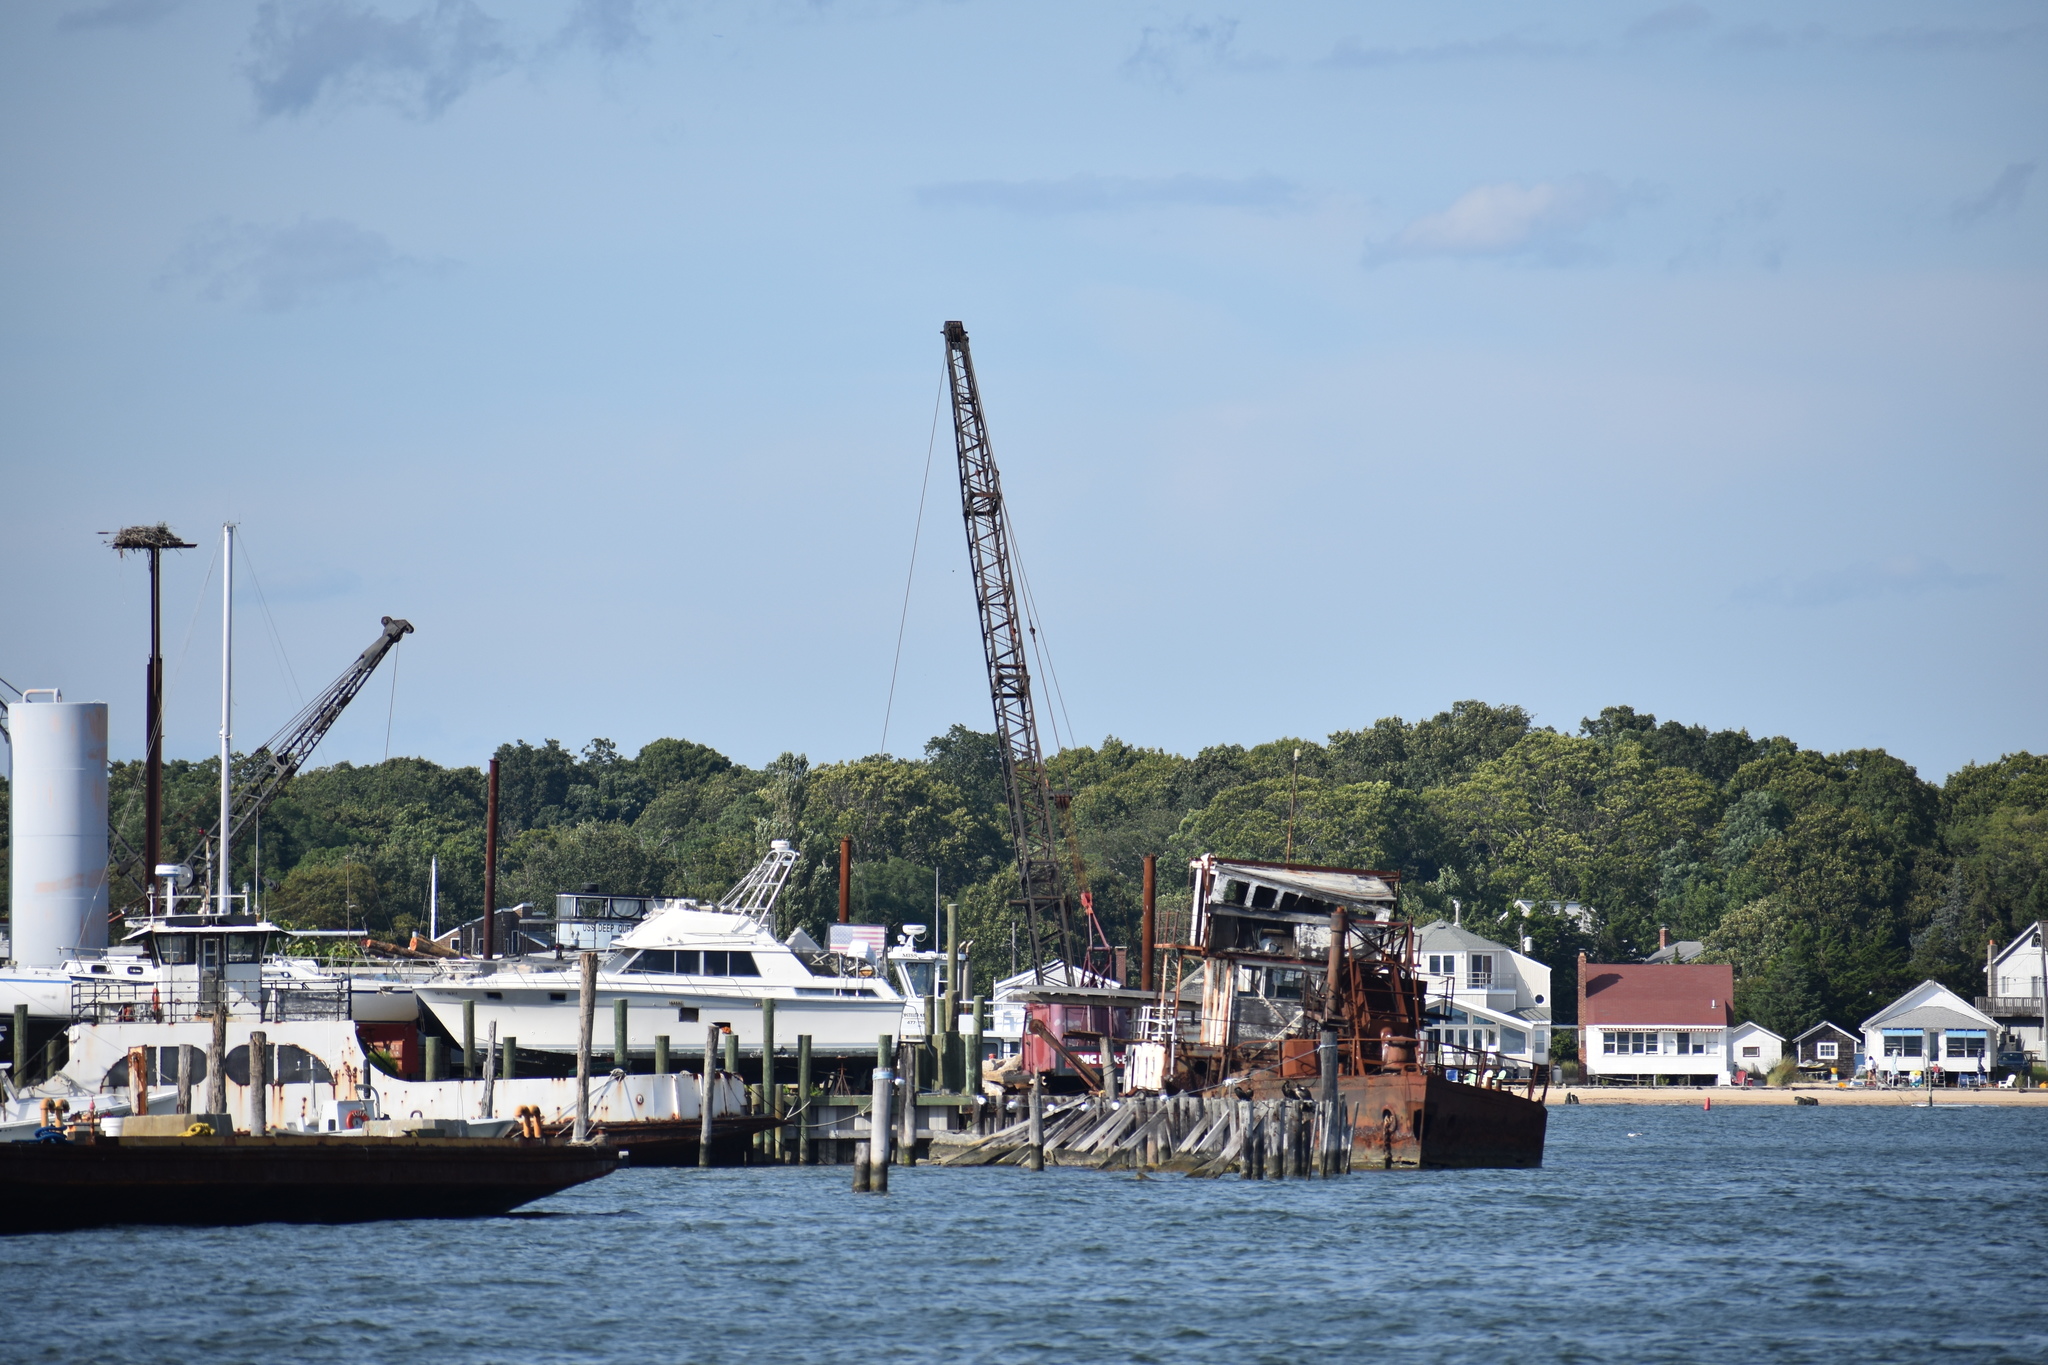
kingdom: Animalia
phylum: Chordata
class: Aves
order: Accipitriformes
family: Pandionidae
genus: Pandion
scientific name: Pandion haliaetus
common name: Osprey
